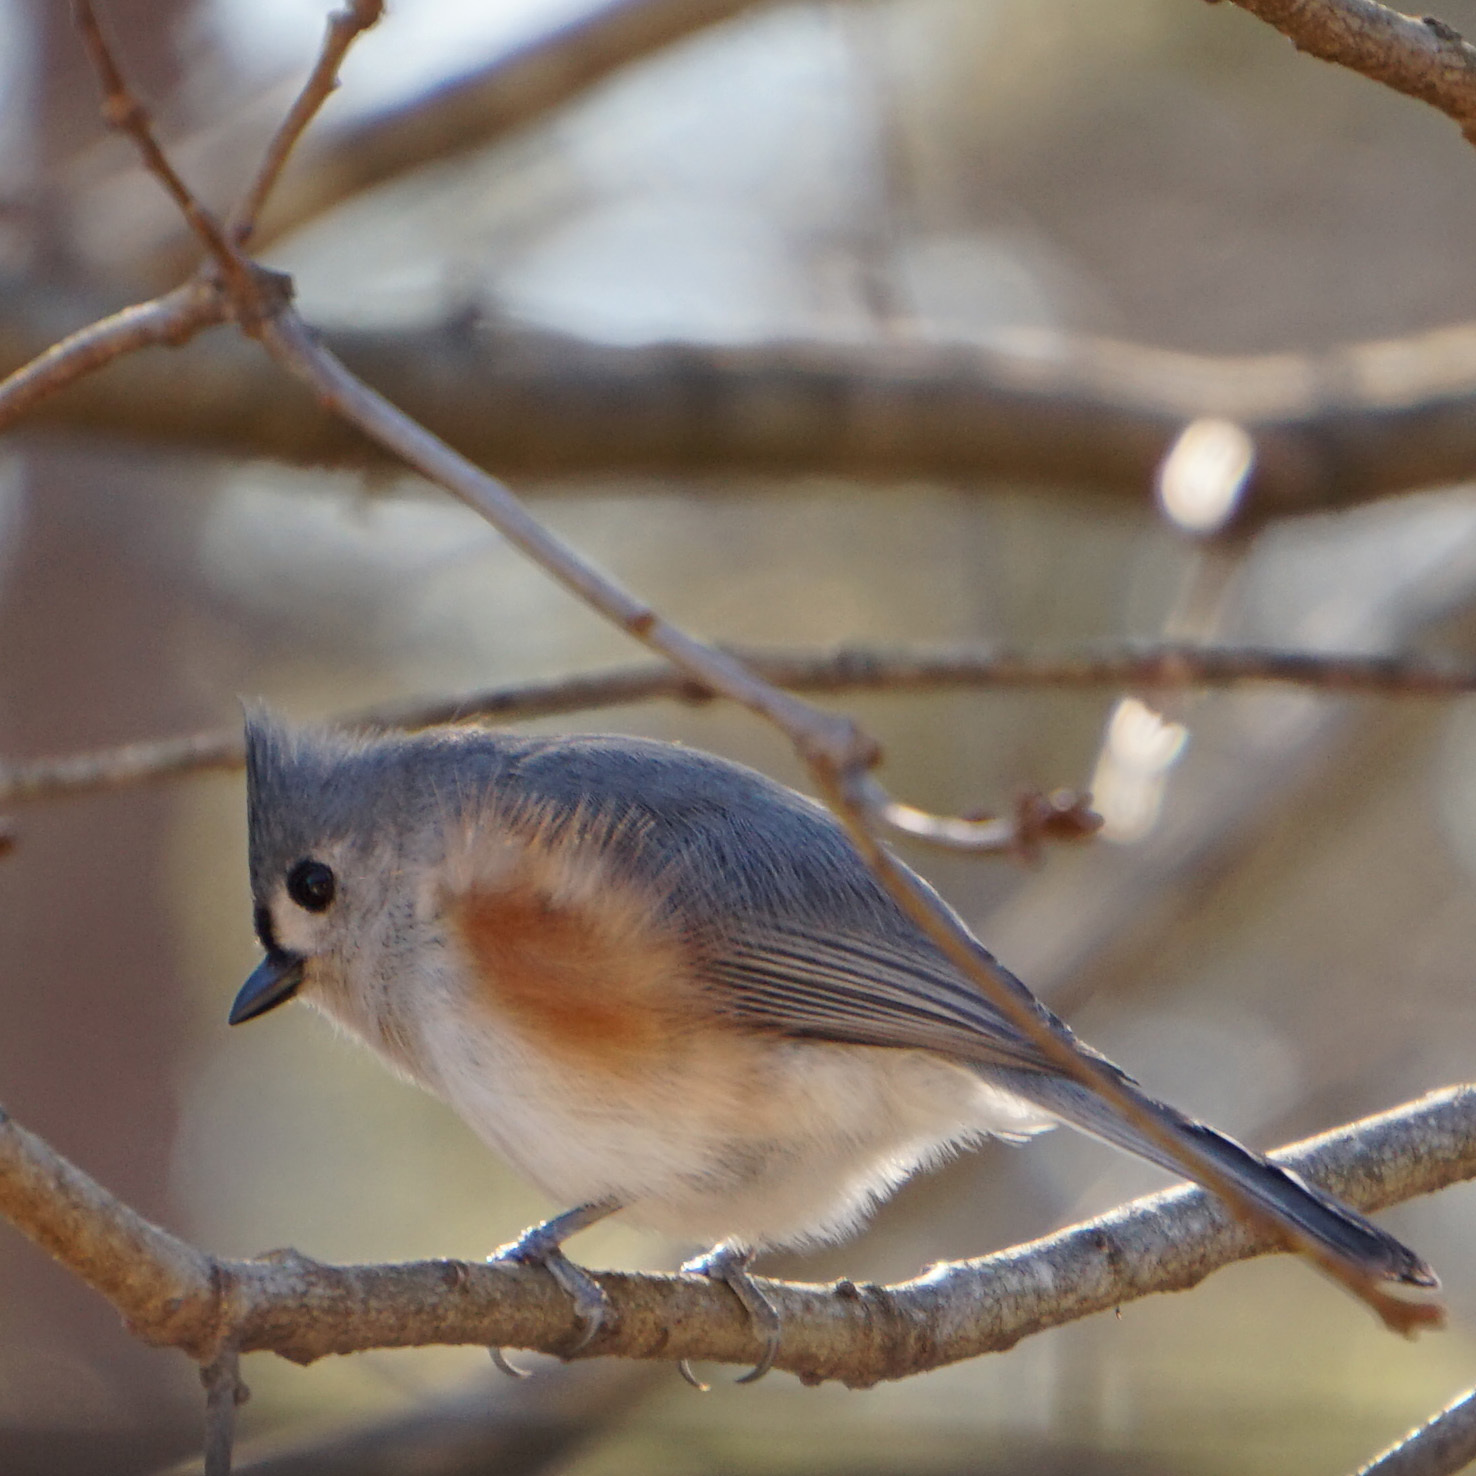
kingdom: Animalia
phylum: Chordata
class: Aves
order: Passeriformes
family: Paridae
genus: Baeolophus
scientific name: Baeolophus bicolor
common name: Tufted titmouse
